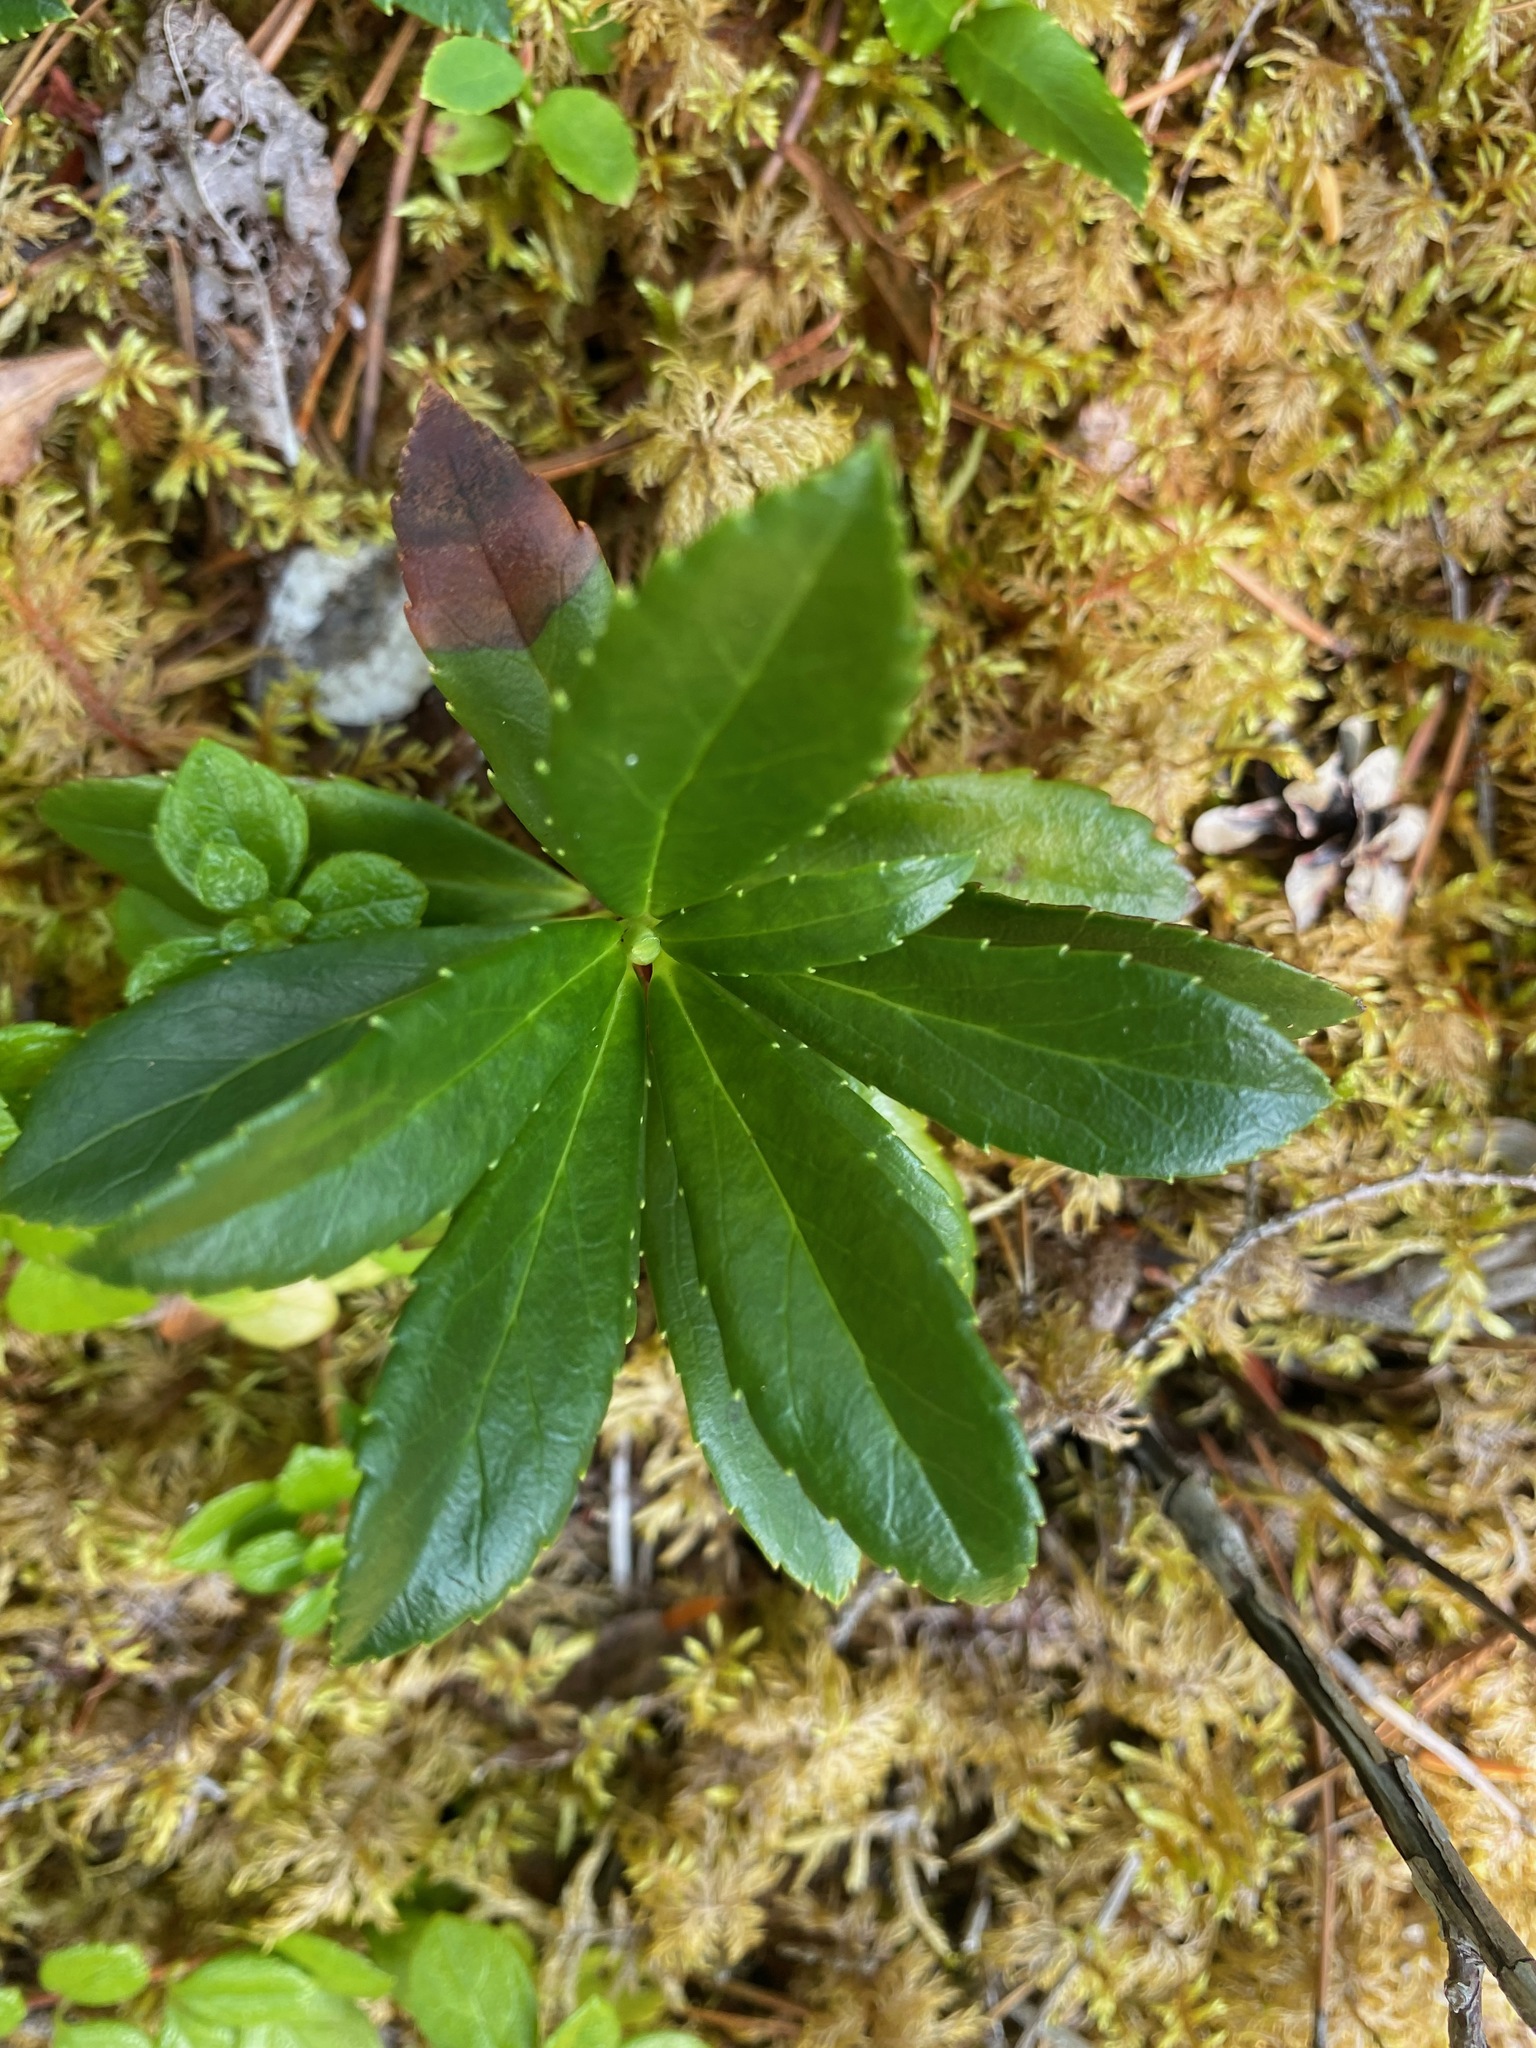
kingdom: Plantae
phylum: Tracheophyta
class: Magnoliopsida
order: Ericales
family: Ericaceae
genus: Chimaphila
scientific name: Chimaphila umbellata
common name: Pipsissewa
